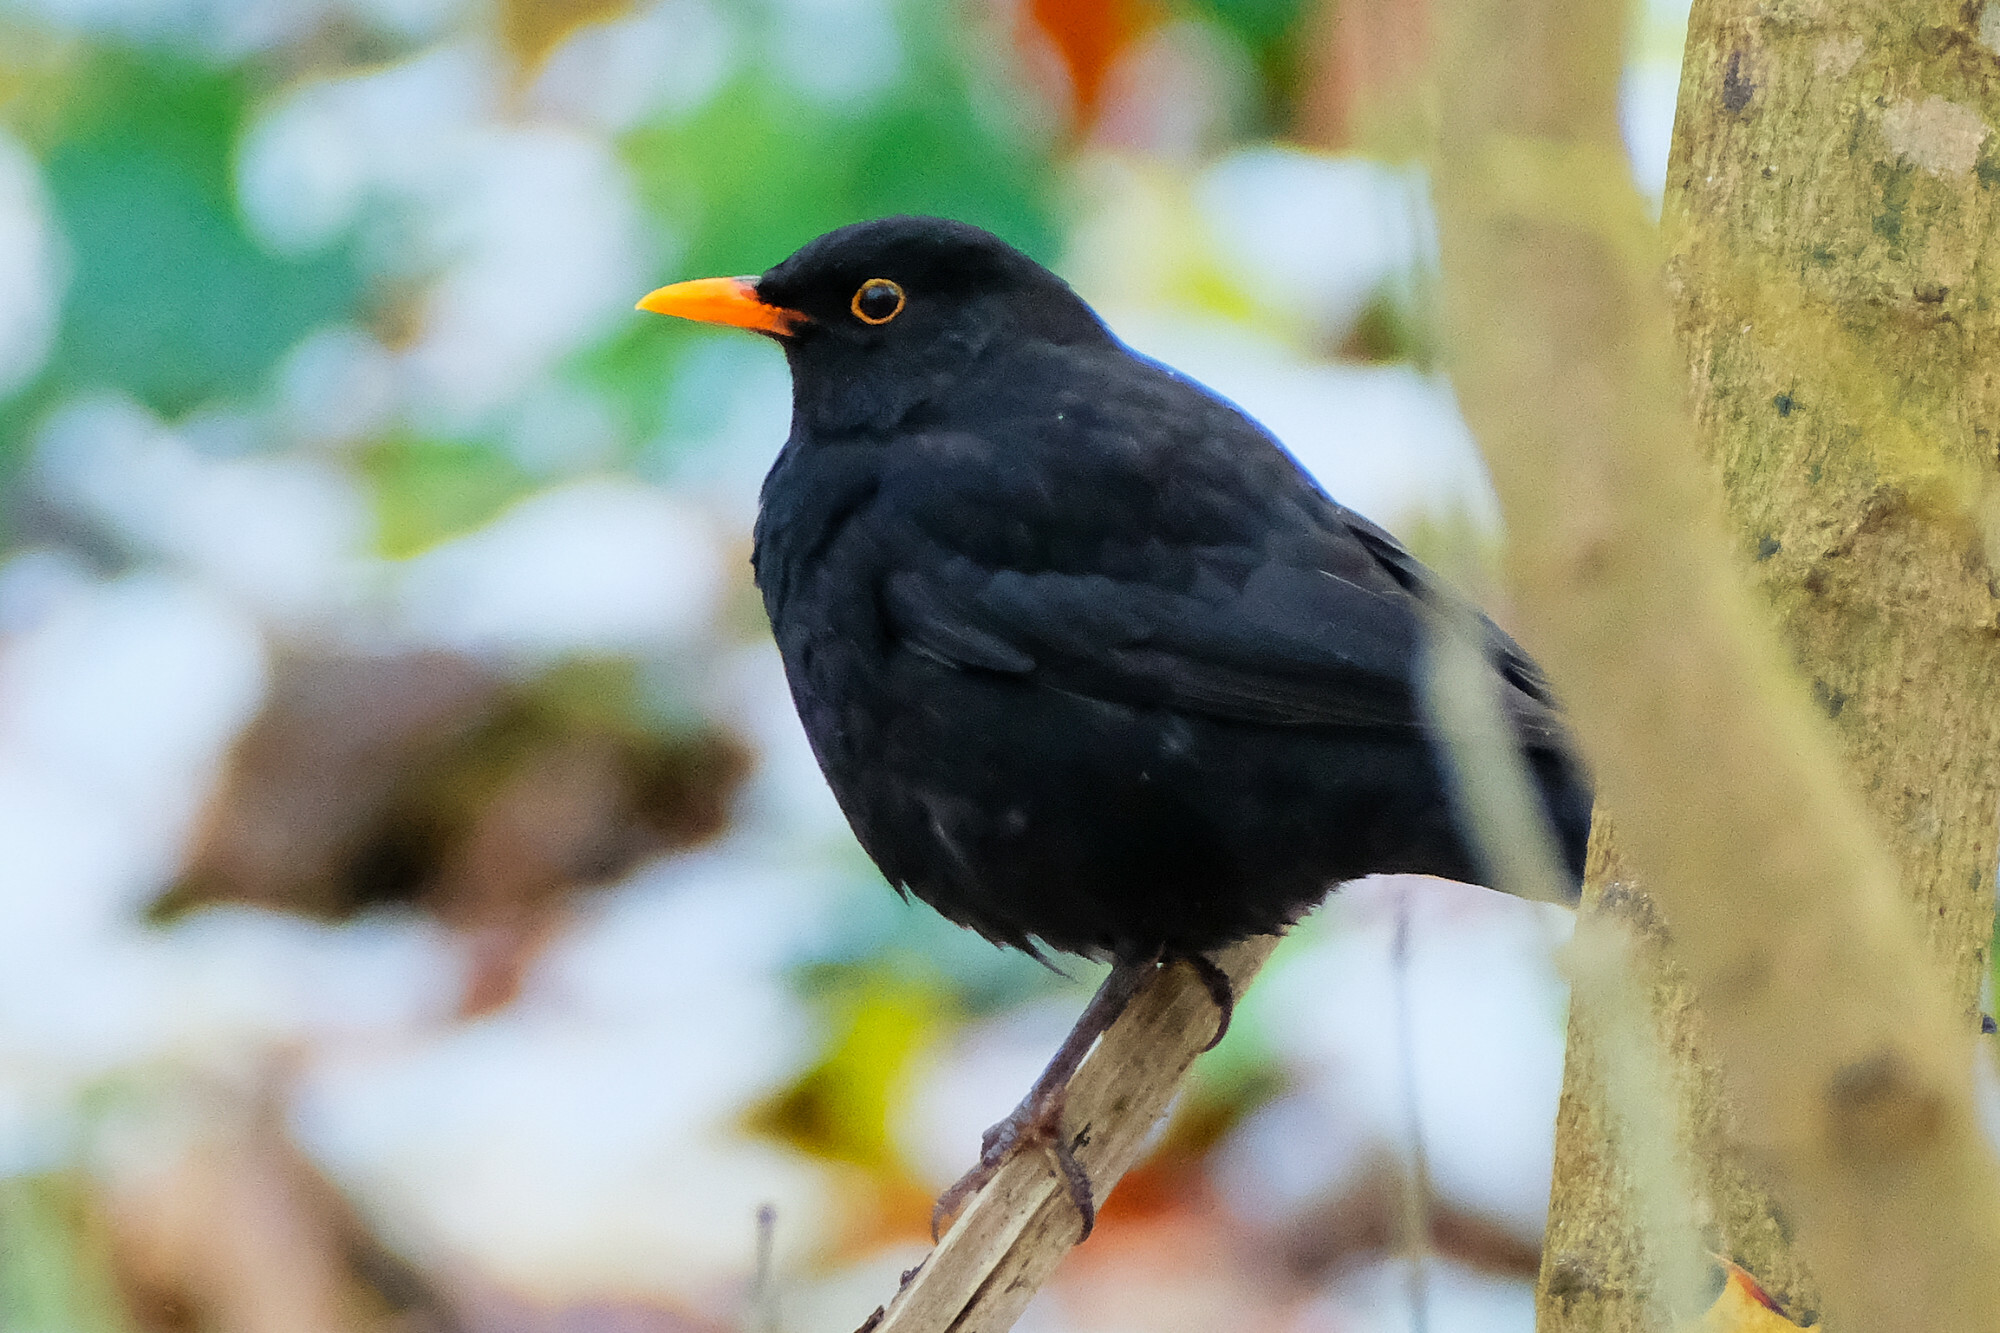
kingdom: Animalia
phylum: Chordata
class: Aves
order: Passeriformes
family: Turdidae
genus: Turdus
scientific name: Turdus merula
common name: Common blackbird
